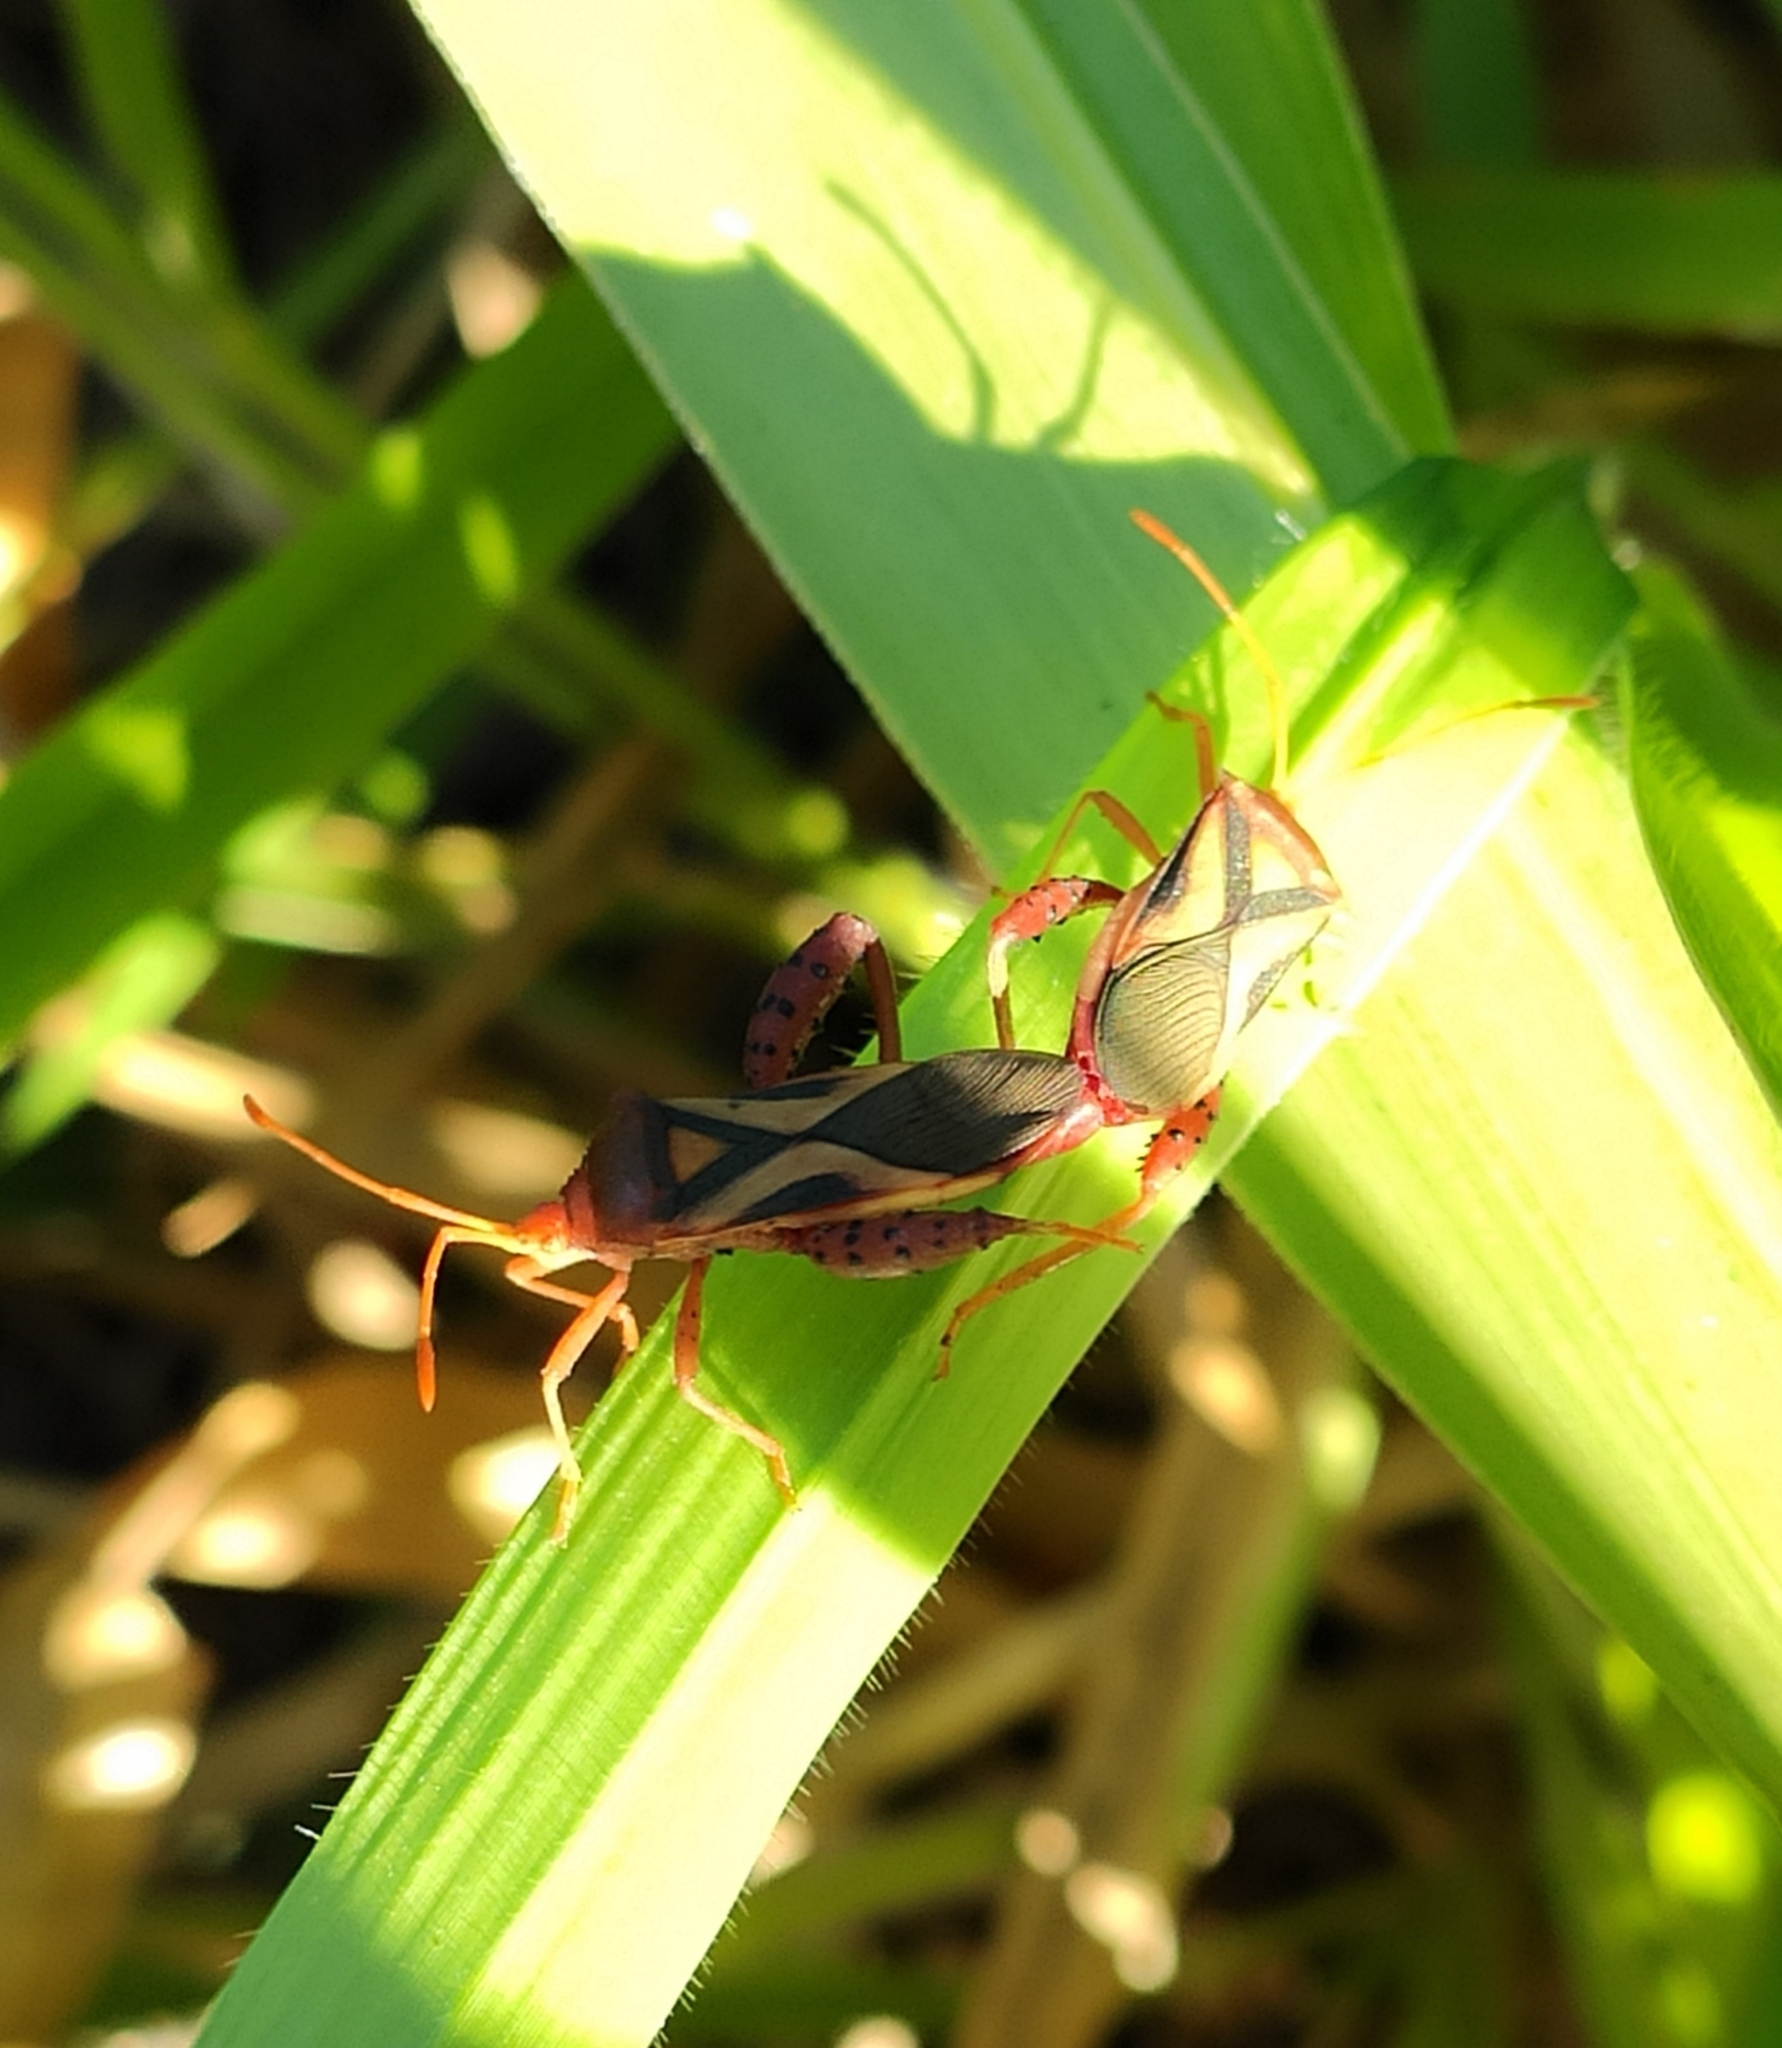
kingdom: Animalia
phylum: Arthropoda
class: Insecta
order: Hemiptera
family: Coreidae
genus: Crinocerus
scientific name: Crinocerus sanctus
